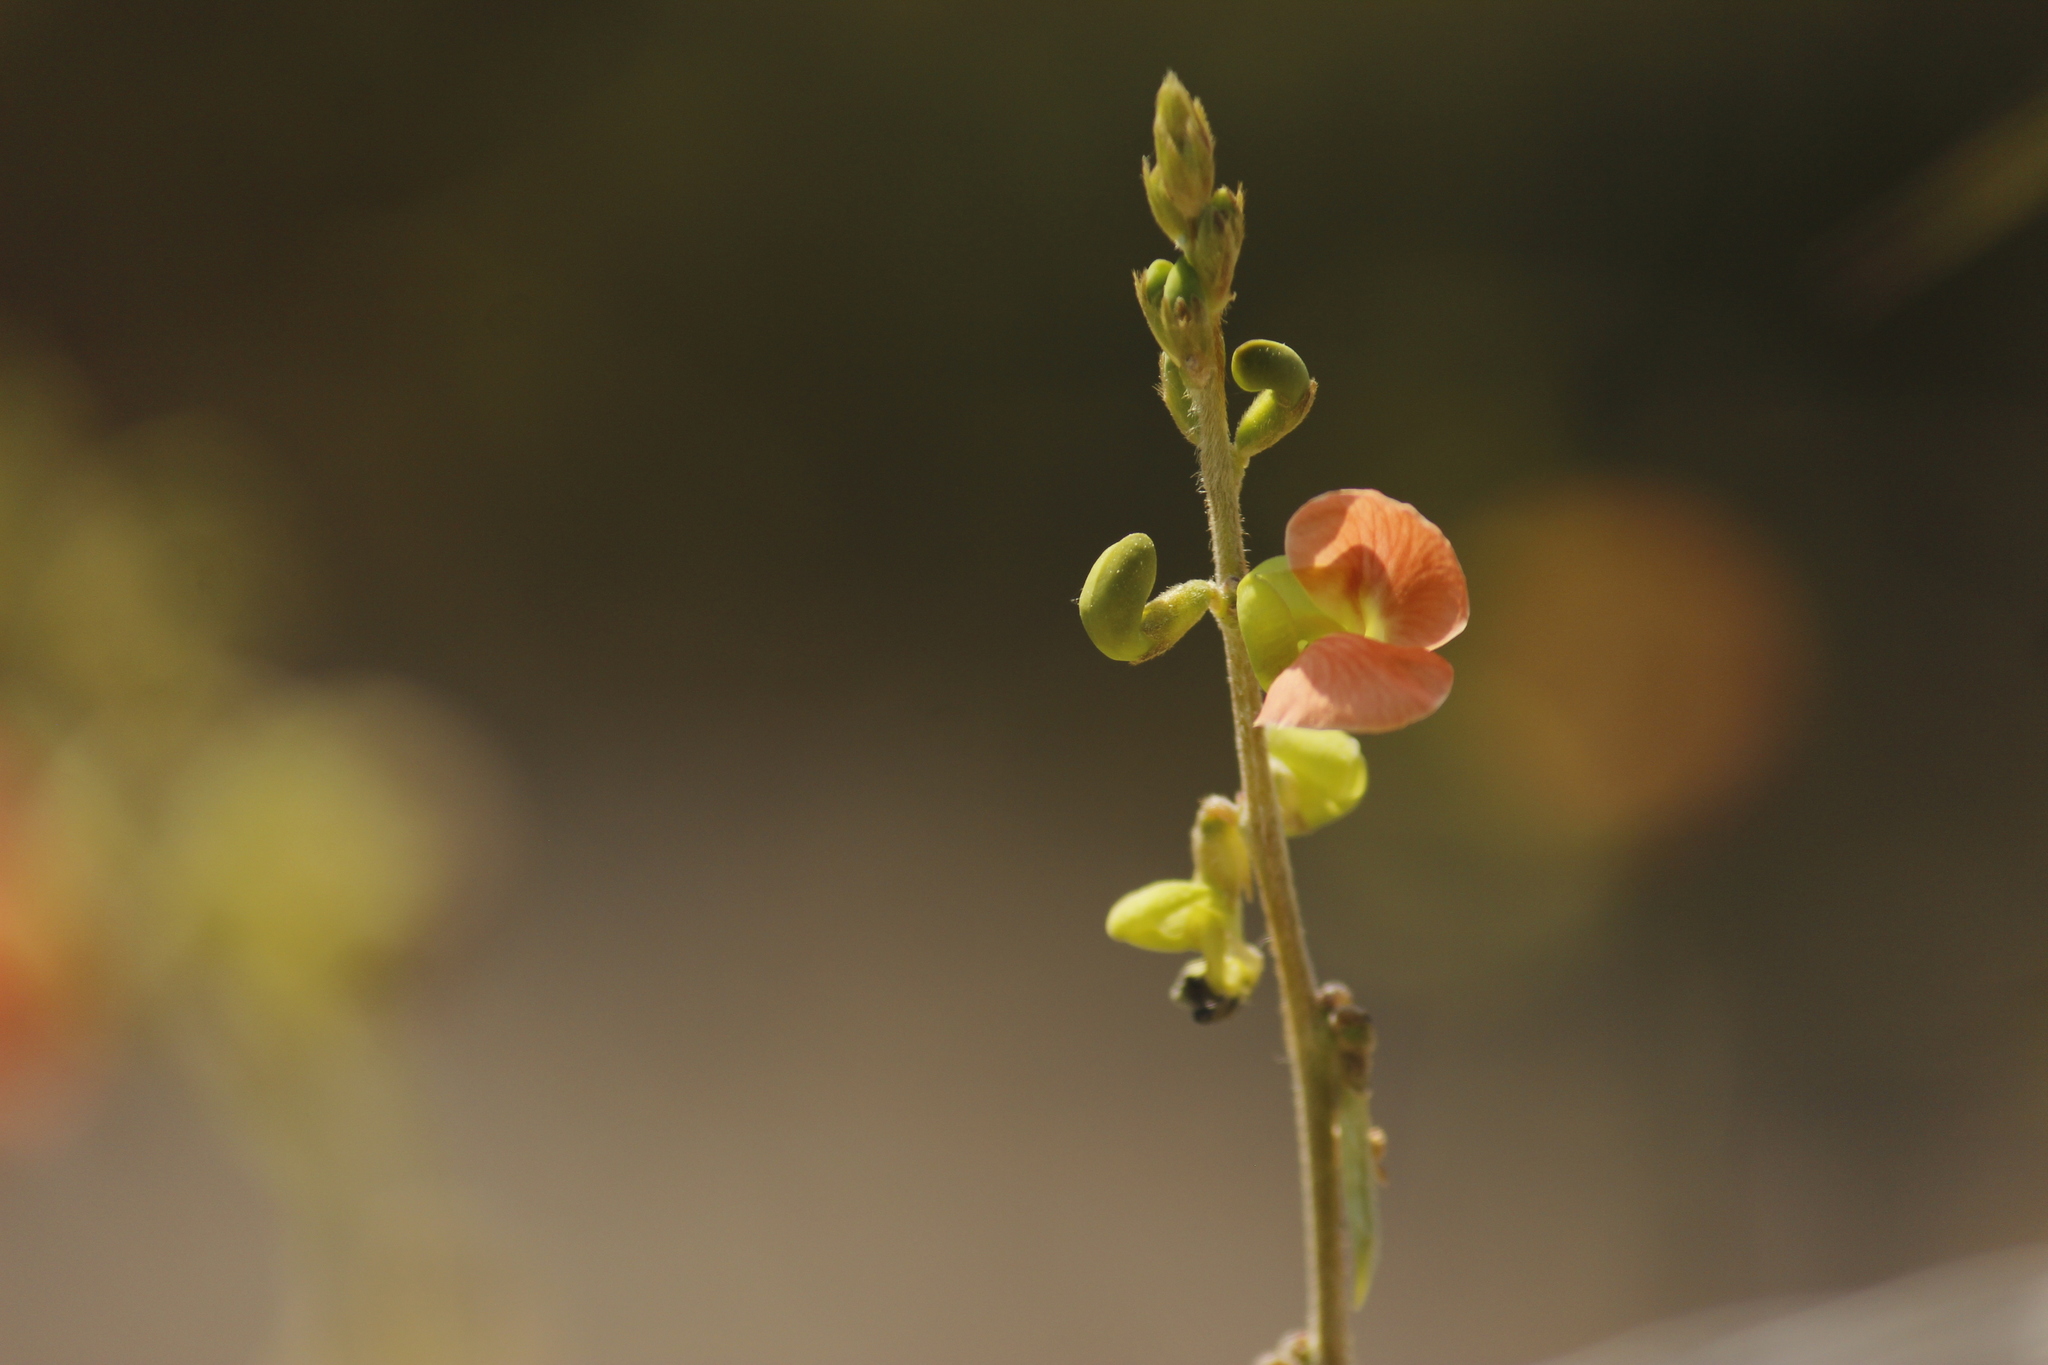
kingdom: Plantae
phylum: Tracheophyta
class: Magnoliopsida
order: Fabales
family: Fabaceae
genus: Macroptilium
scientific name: Macroptilium erythroloma
